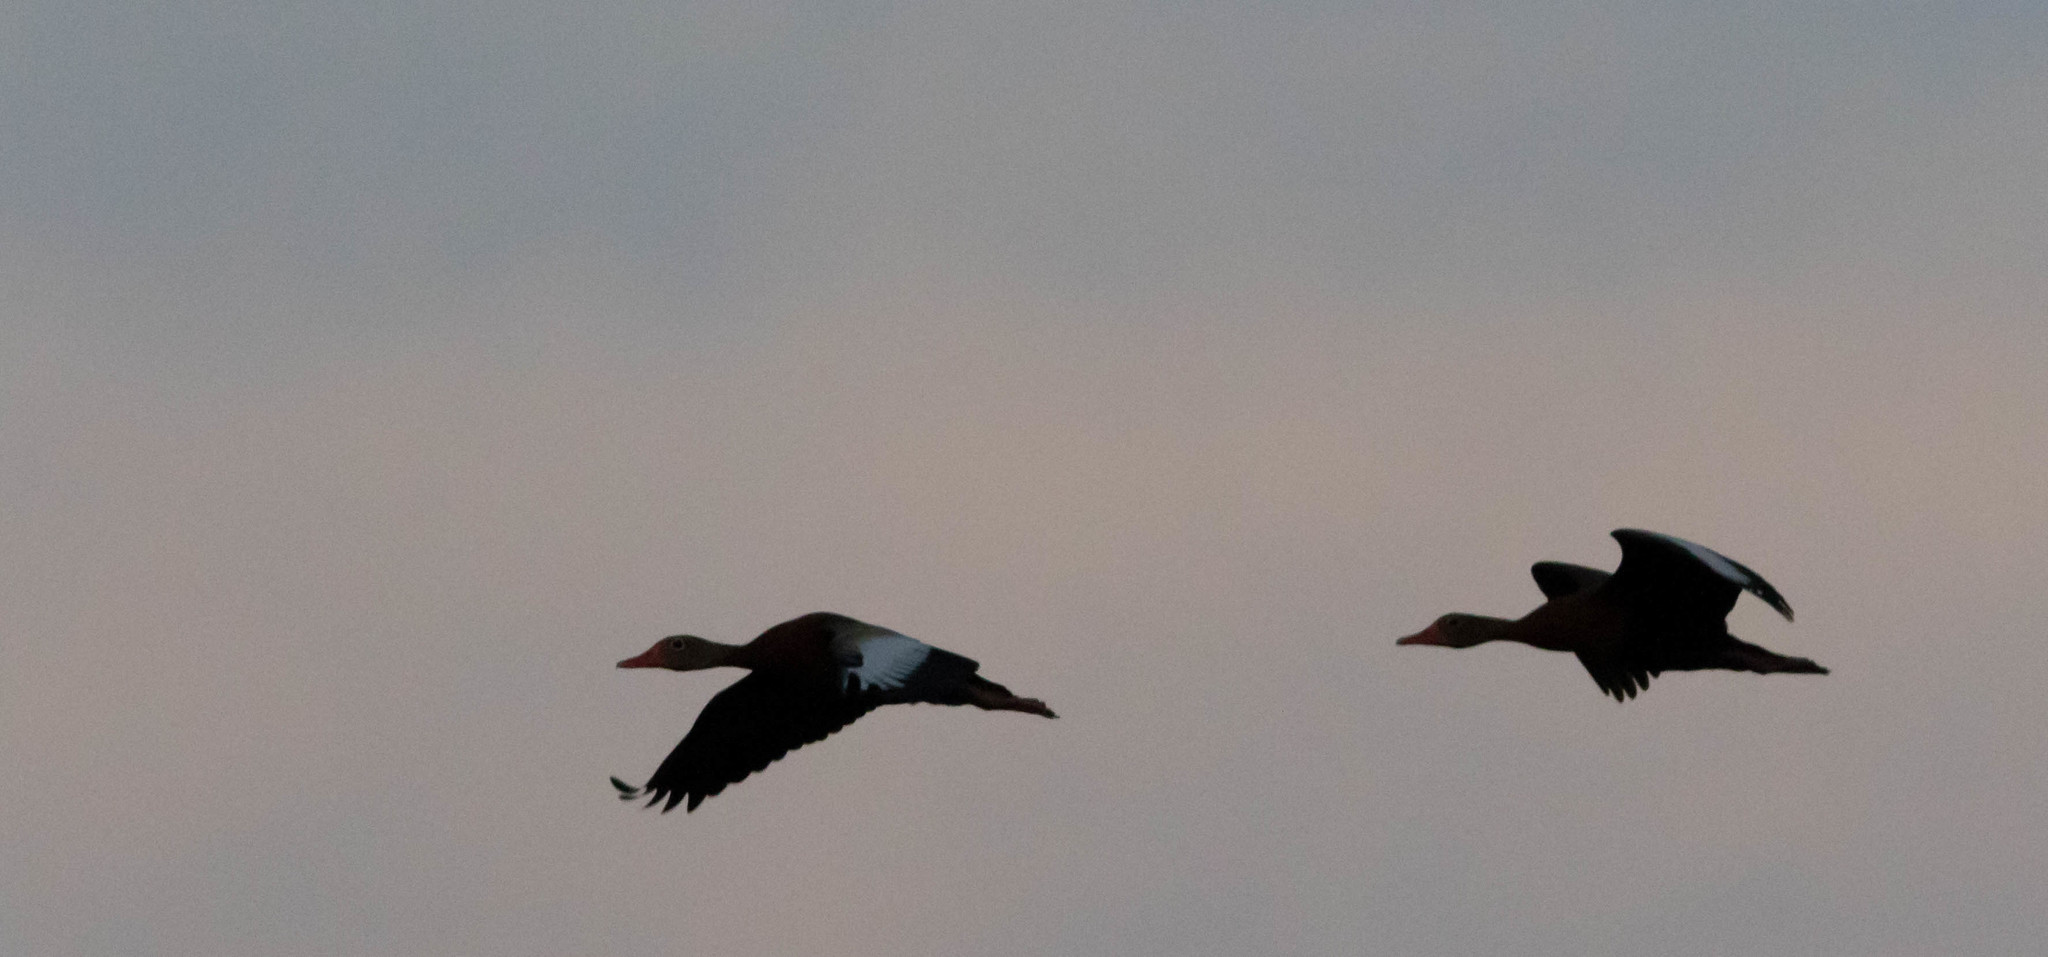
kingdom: Animalia
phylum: Chordata
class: Aves
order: Anseriformes
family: Anatidae
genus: Dendrocygna
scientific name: Dendrocygna autumnalis
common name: Black-bellied whistling duck
